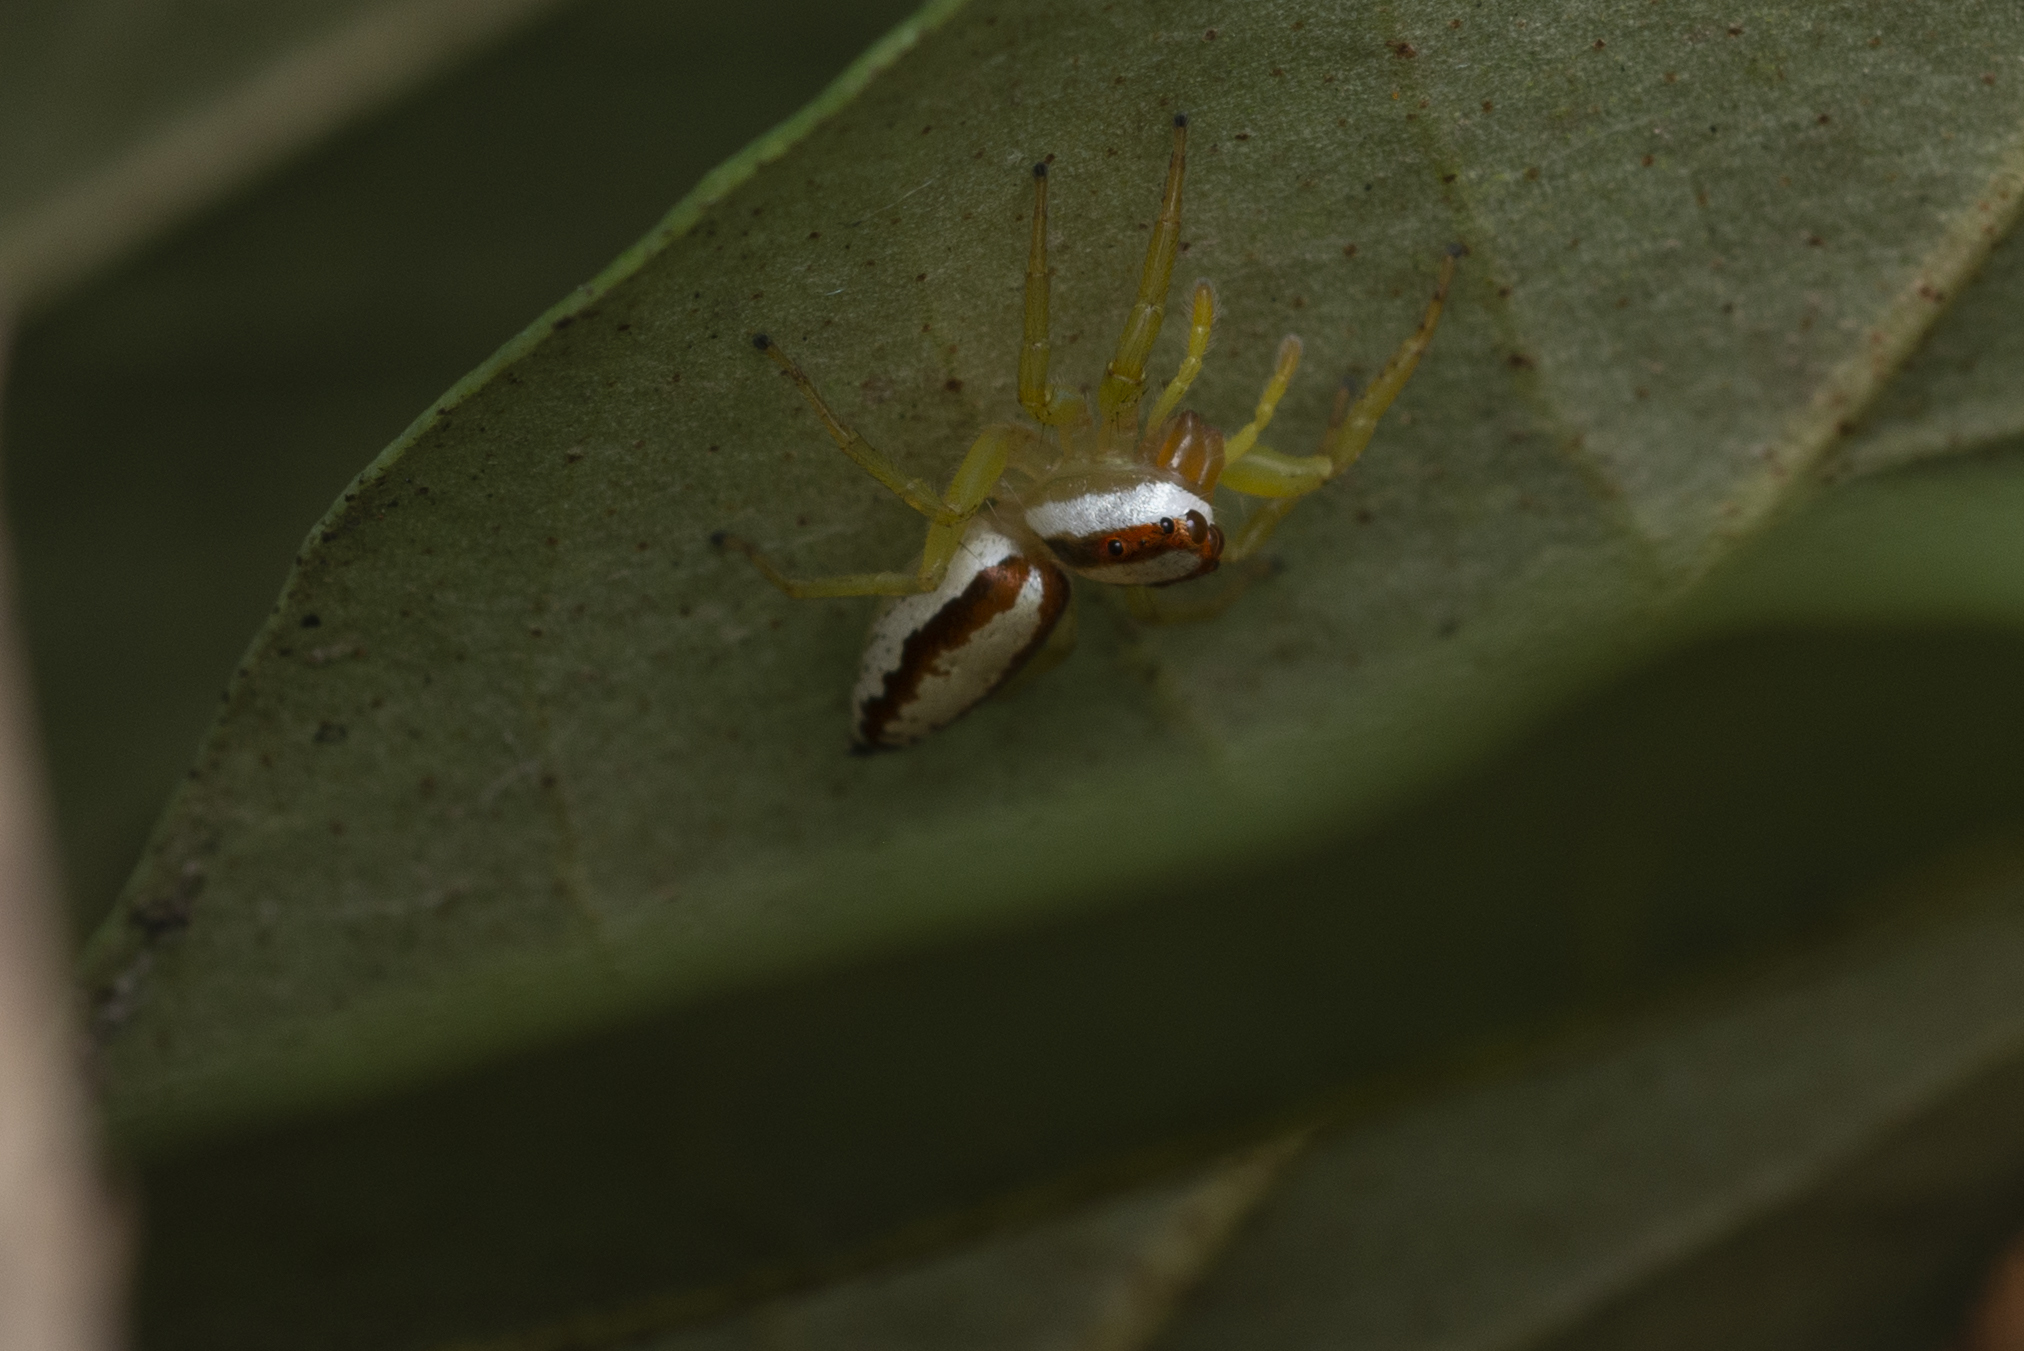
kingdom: Animalia
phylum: Arthropoda
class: Arachnida
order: Araneae
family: Salticidae
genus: Epocilla
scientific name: Epocilla calcarata
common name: Jumping spider
